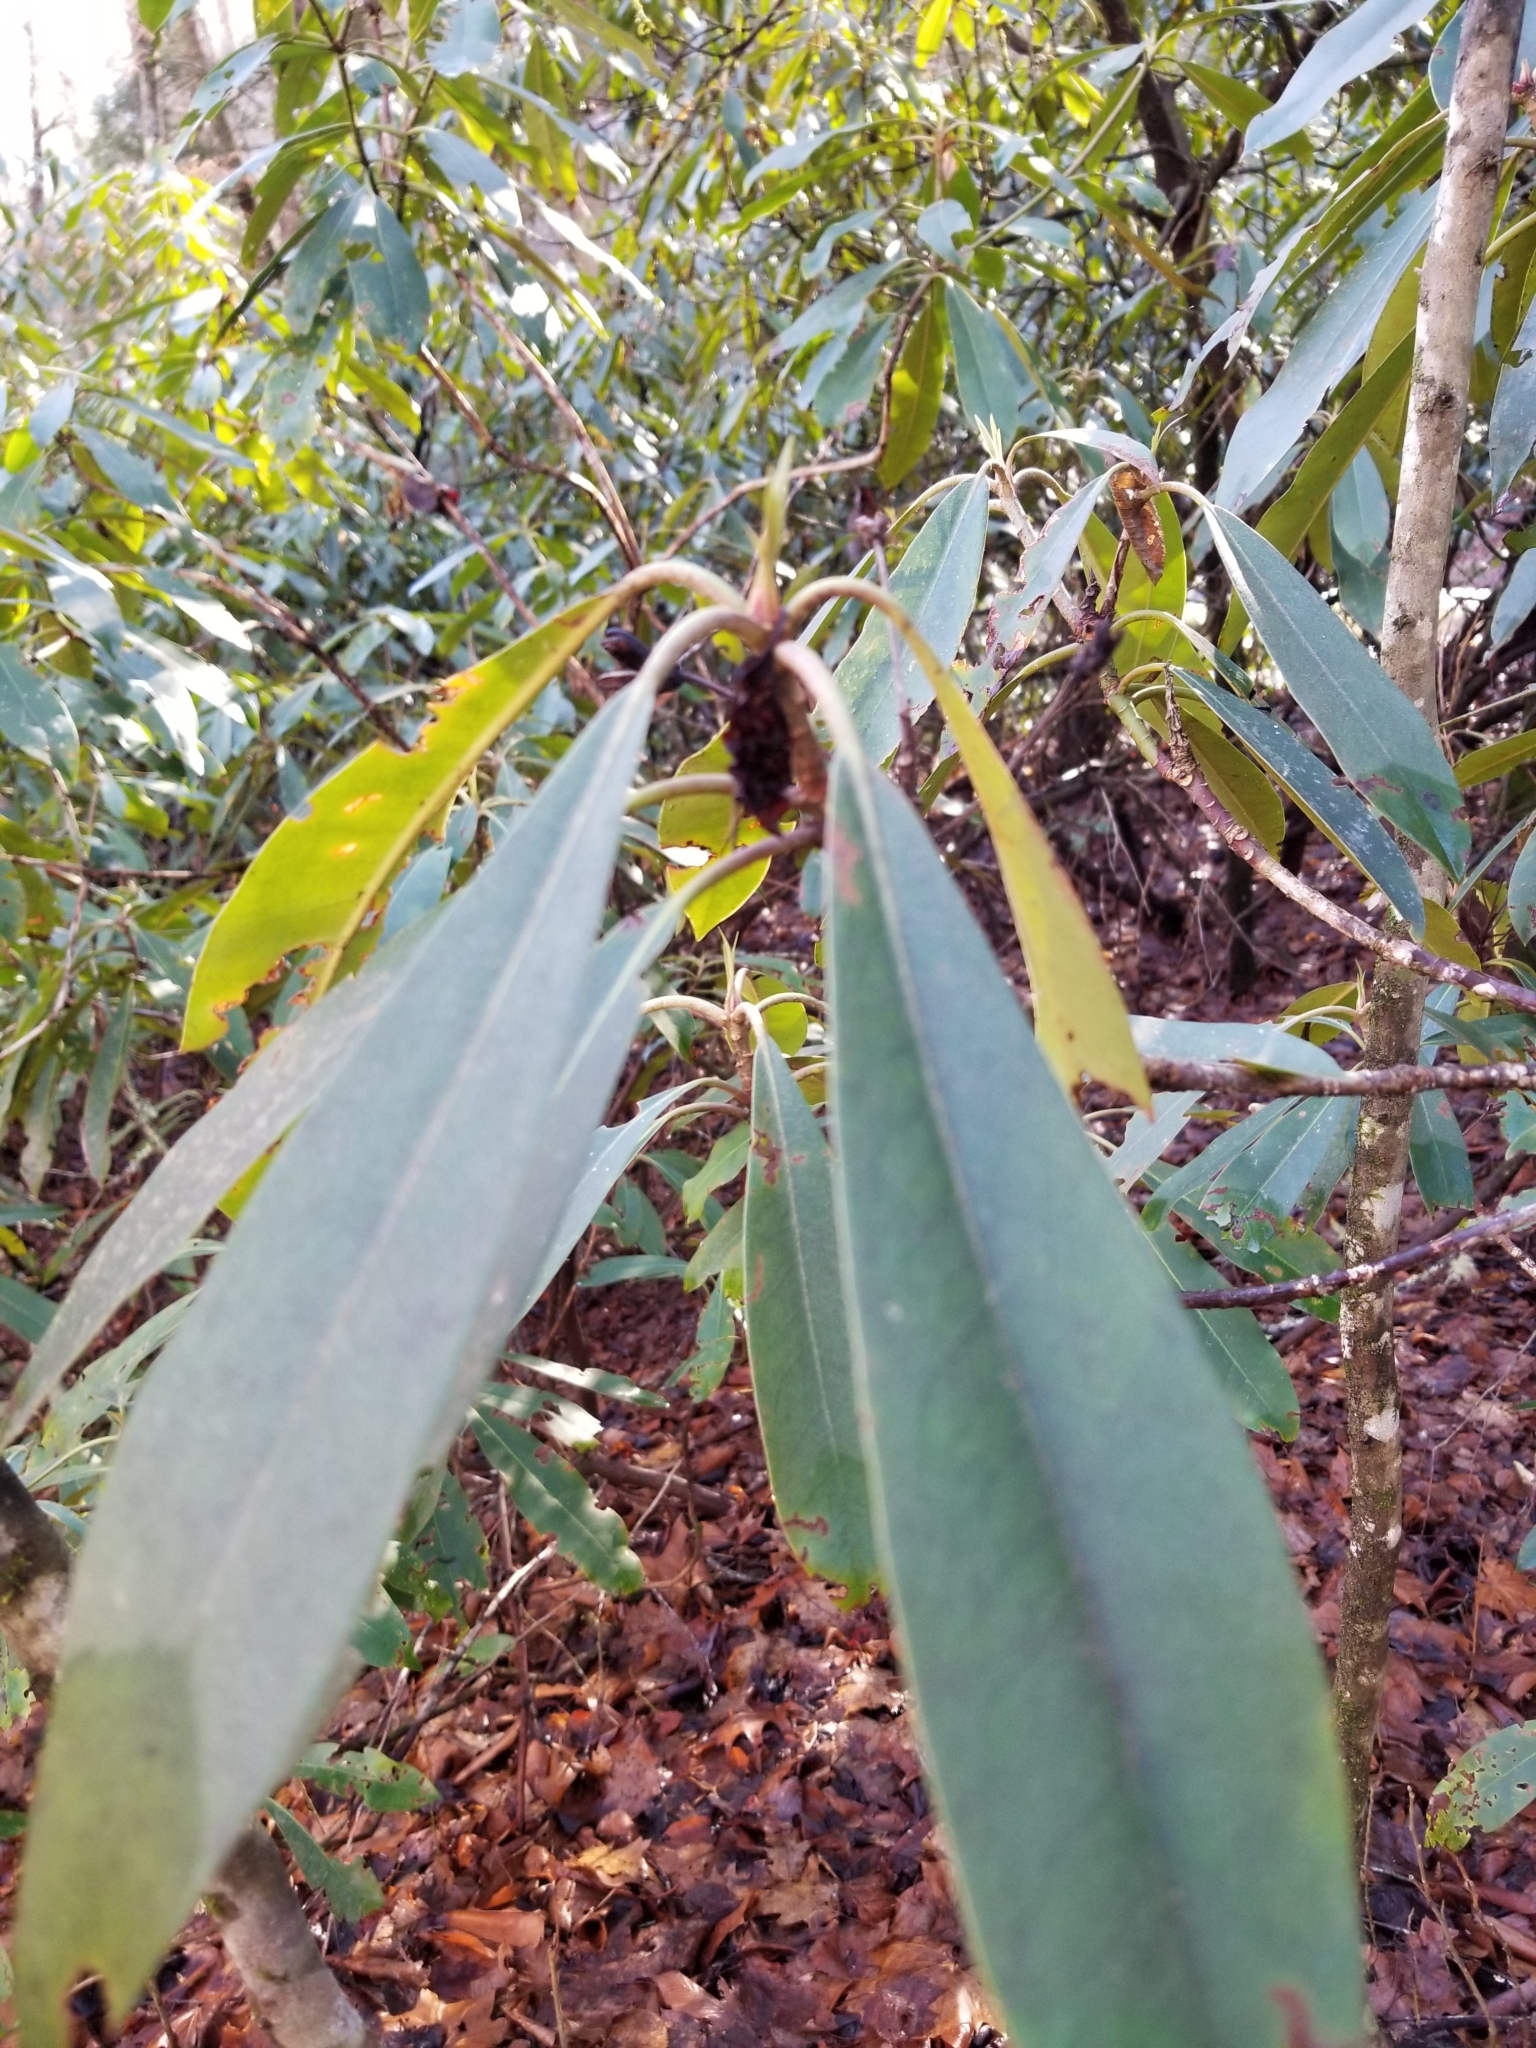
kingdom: Plantae
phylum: Tracheophyta
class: Magnoliopsida
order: Ericales
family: Ericaceae
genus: Rhododendron
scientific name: Rhododendron maximum
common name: Great rhododendron
